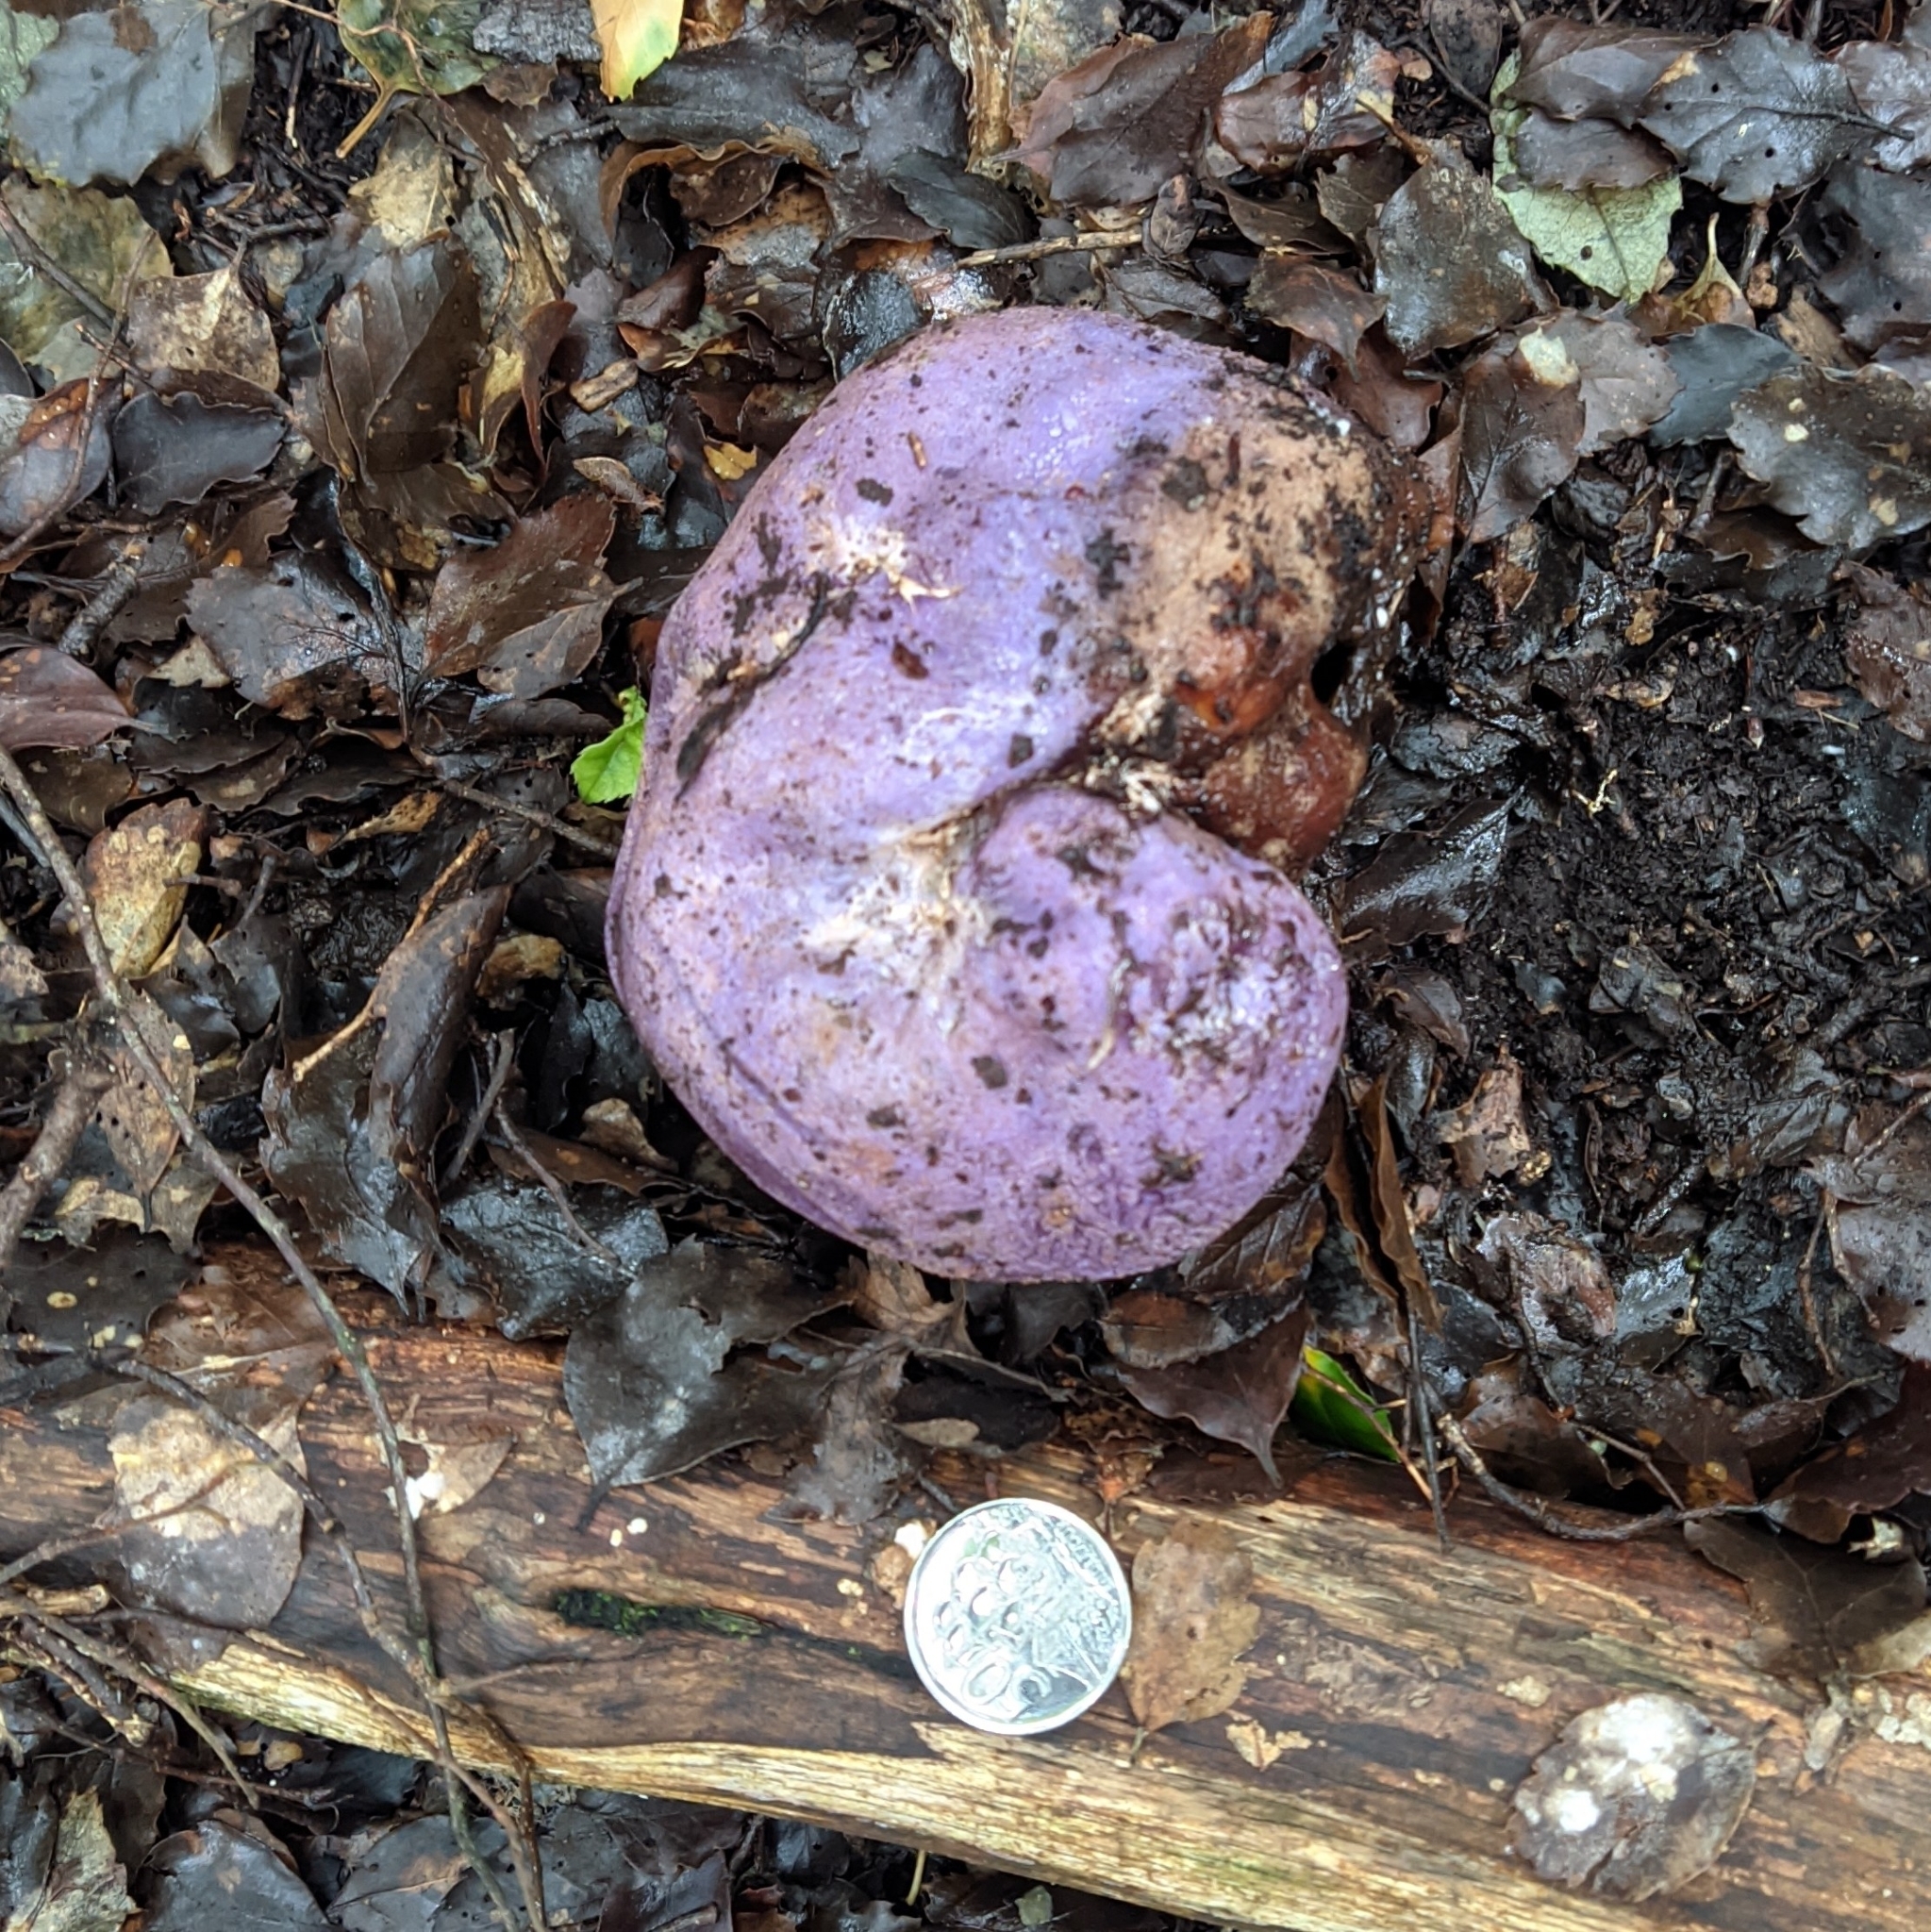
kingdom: Fungi
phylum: Basidiomycota
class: Agaricomycetes
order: Hysterangiales
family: Gallaceaceae
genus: Gallacea
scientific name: Gallacea scleroderma
